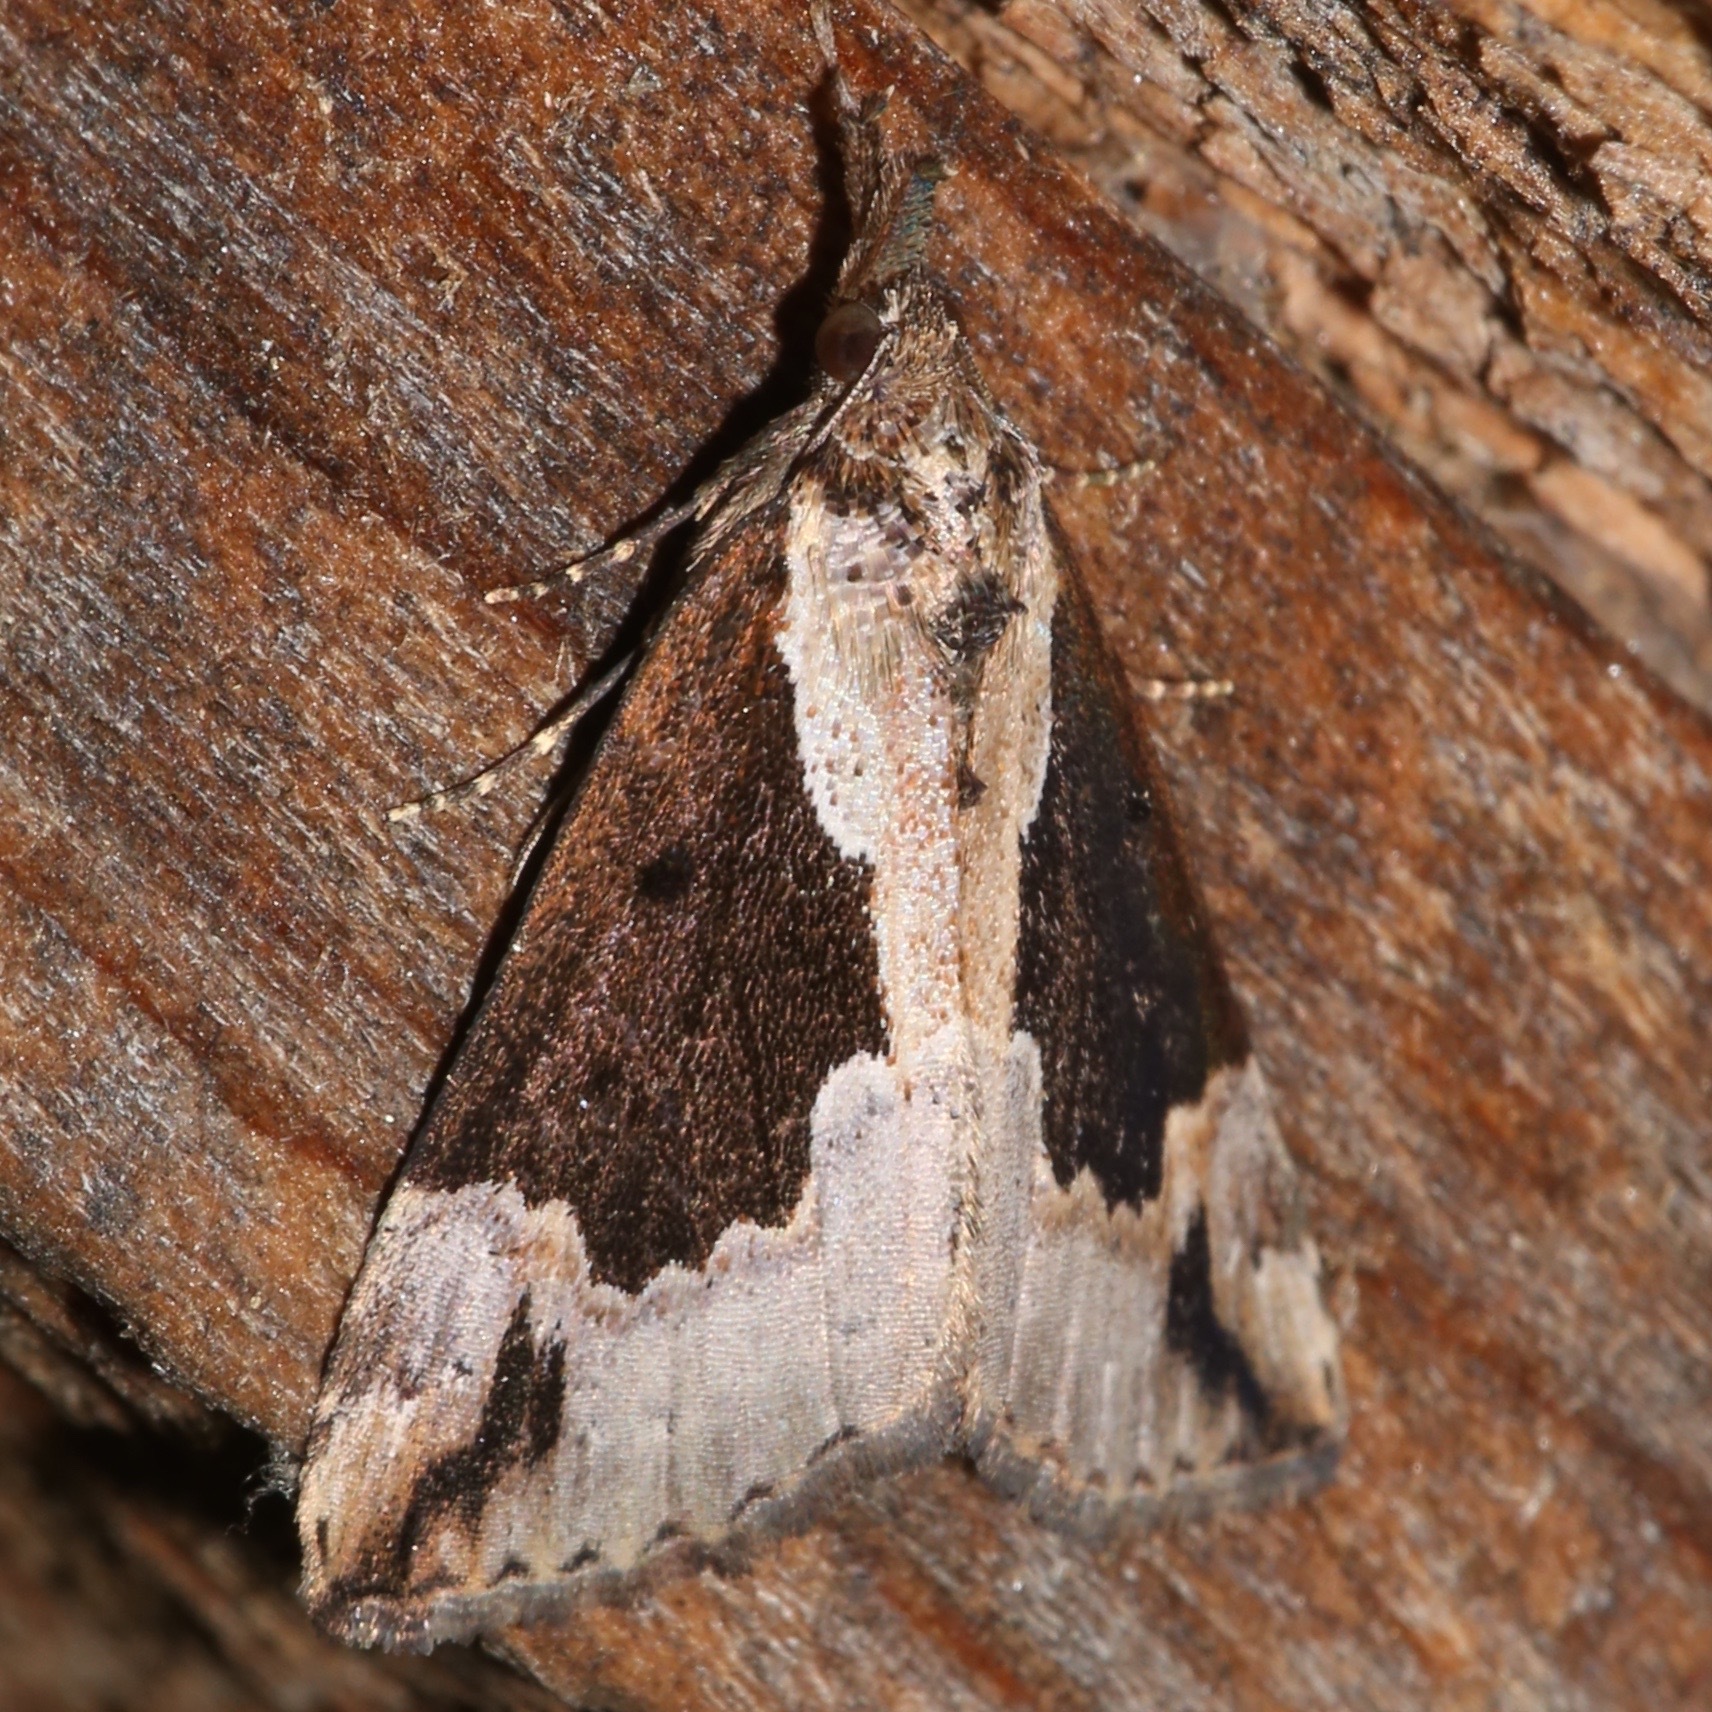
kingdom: Animalia
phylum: Arthropoda
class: Insecta
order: Lepidoptera
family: Erebidae
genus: Hypena
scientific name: Hypena baltimoralis
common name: Baltimore snout
